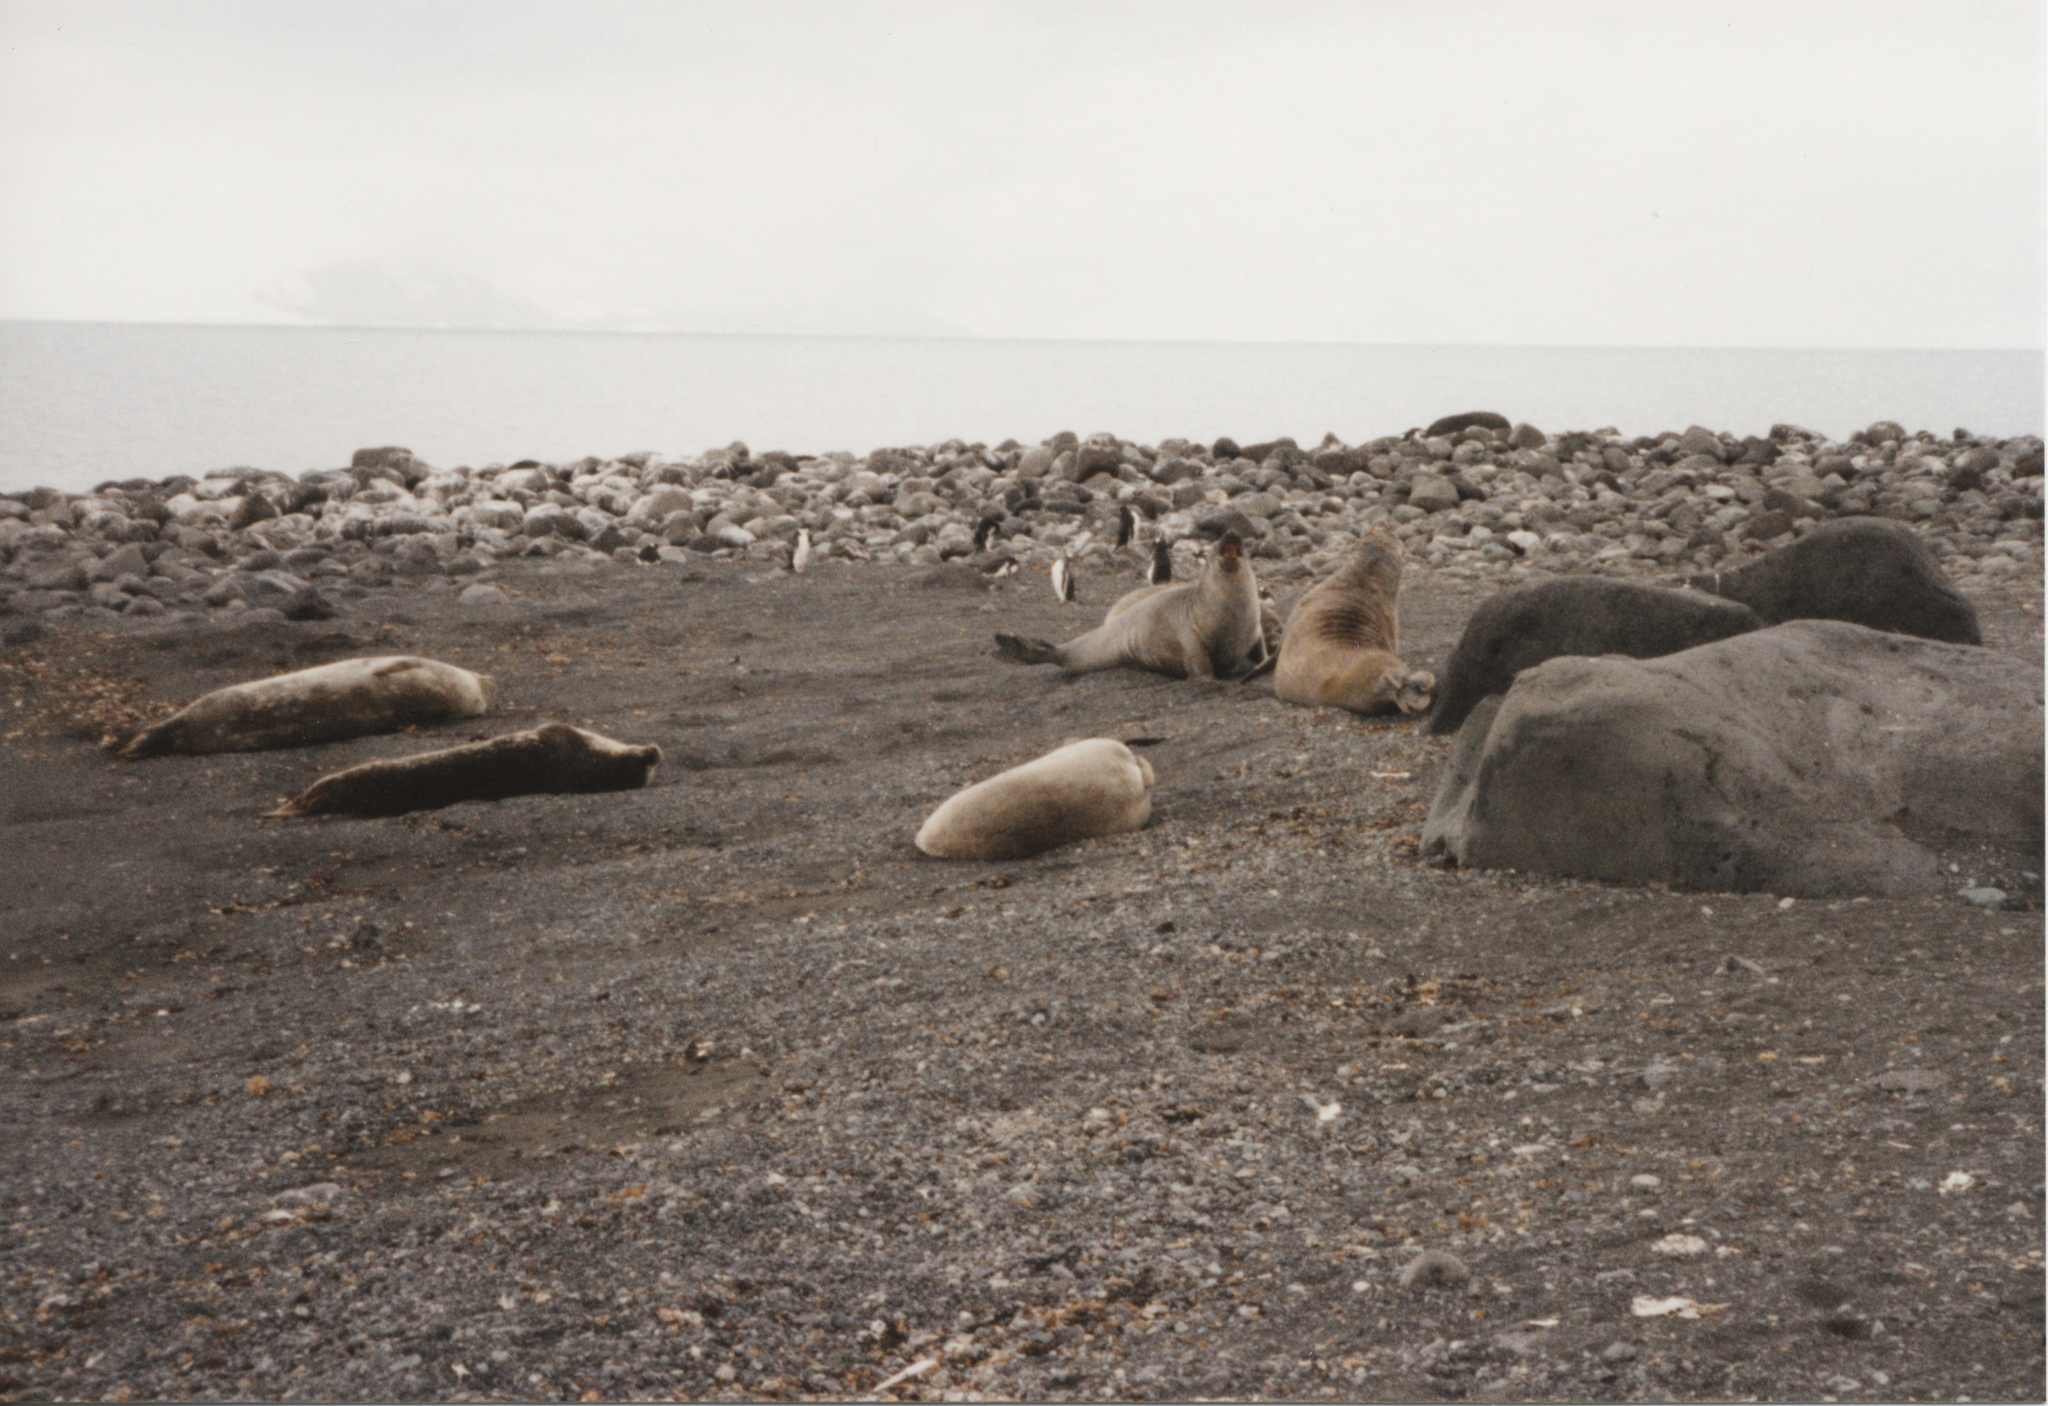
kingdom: Animalia
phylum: Chordata
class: Mammalia
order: Carnivora
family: Phocidae
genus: Mirounga
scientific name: Mirounga leonina
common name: Southern elephant seal
